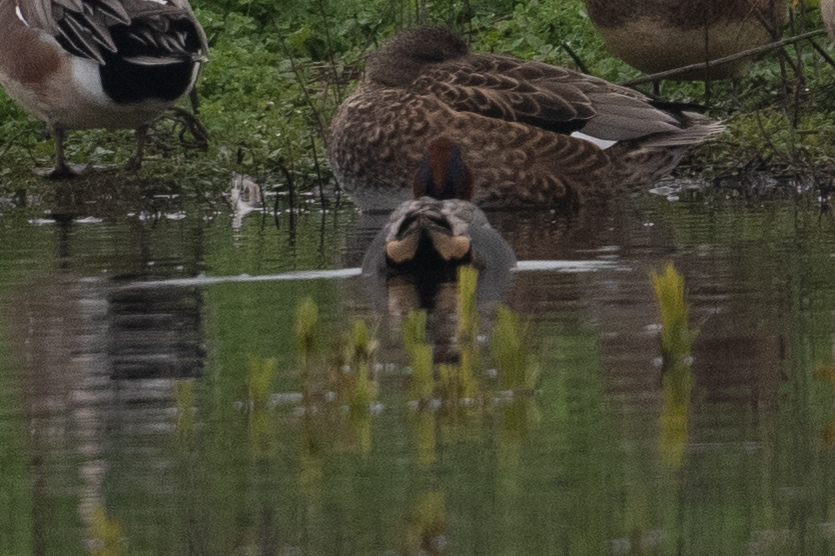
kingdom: Animalia
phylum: Chordata
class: Aves
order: Anseriformes
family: Anatidae
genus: Anas
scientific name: Anas crecca
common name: Eurasian teal
